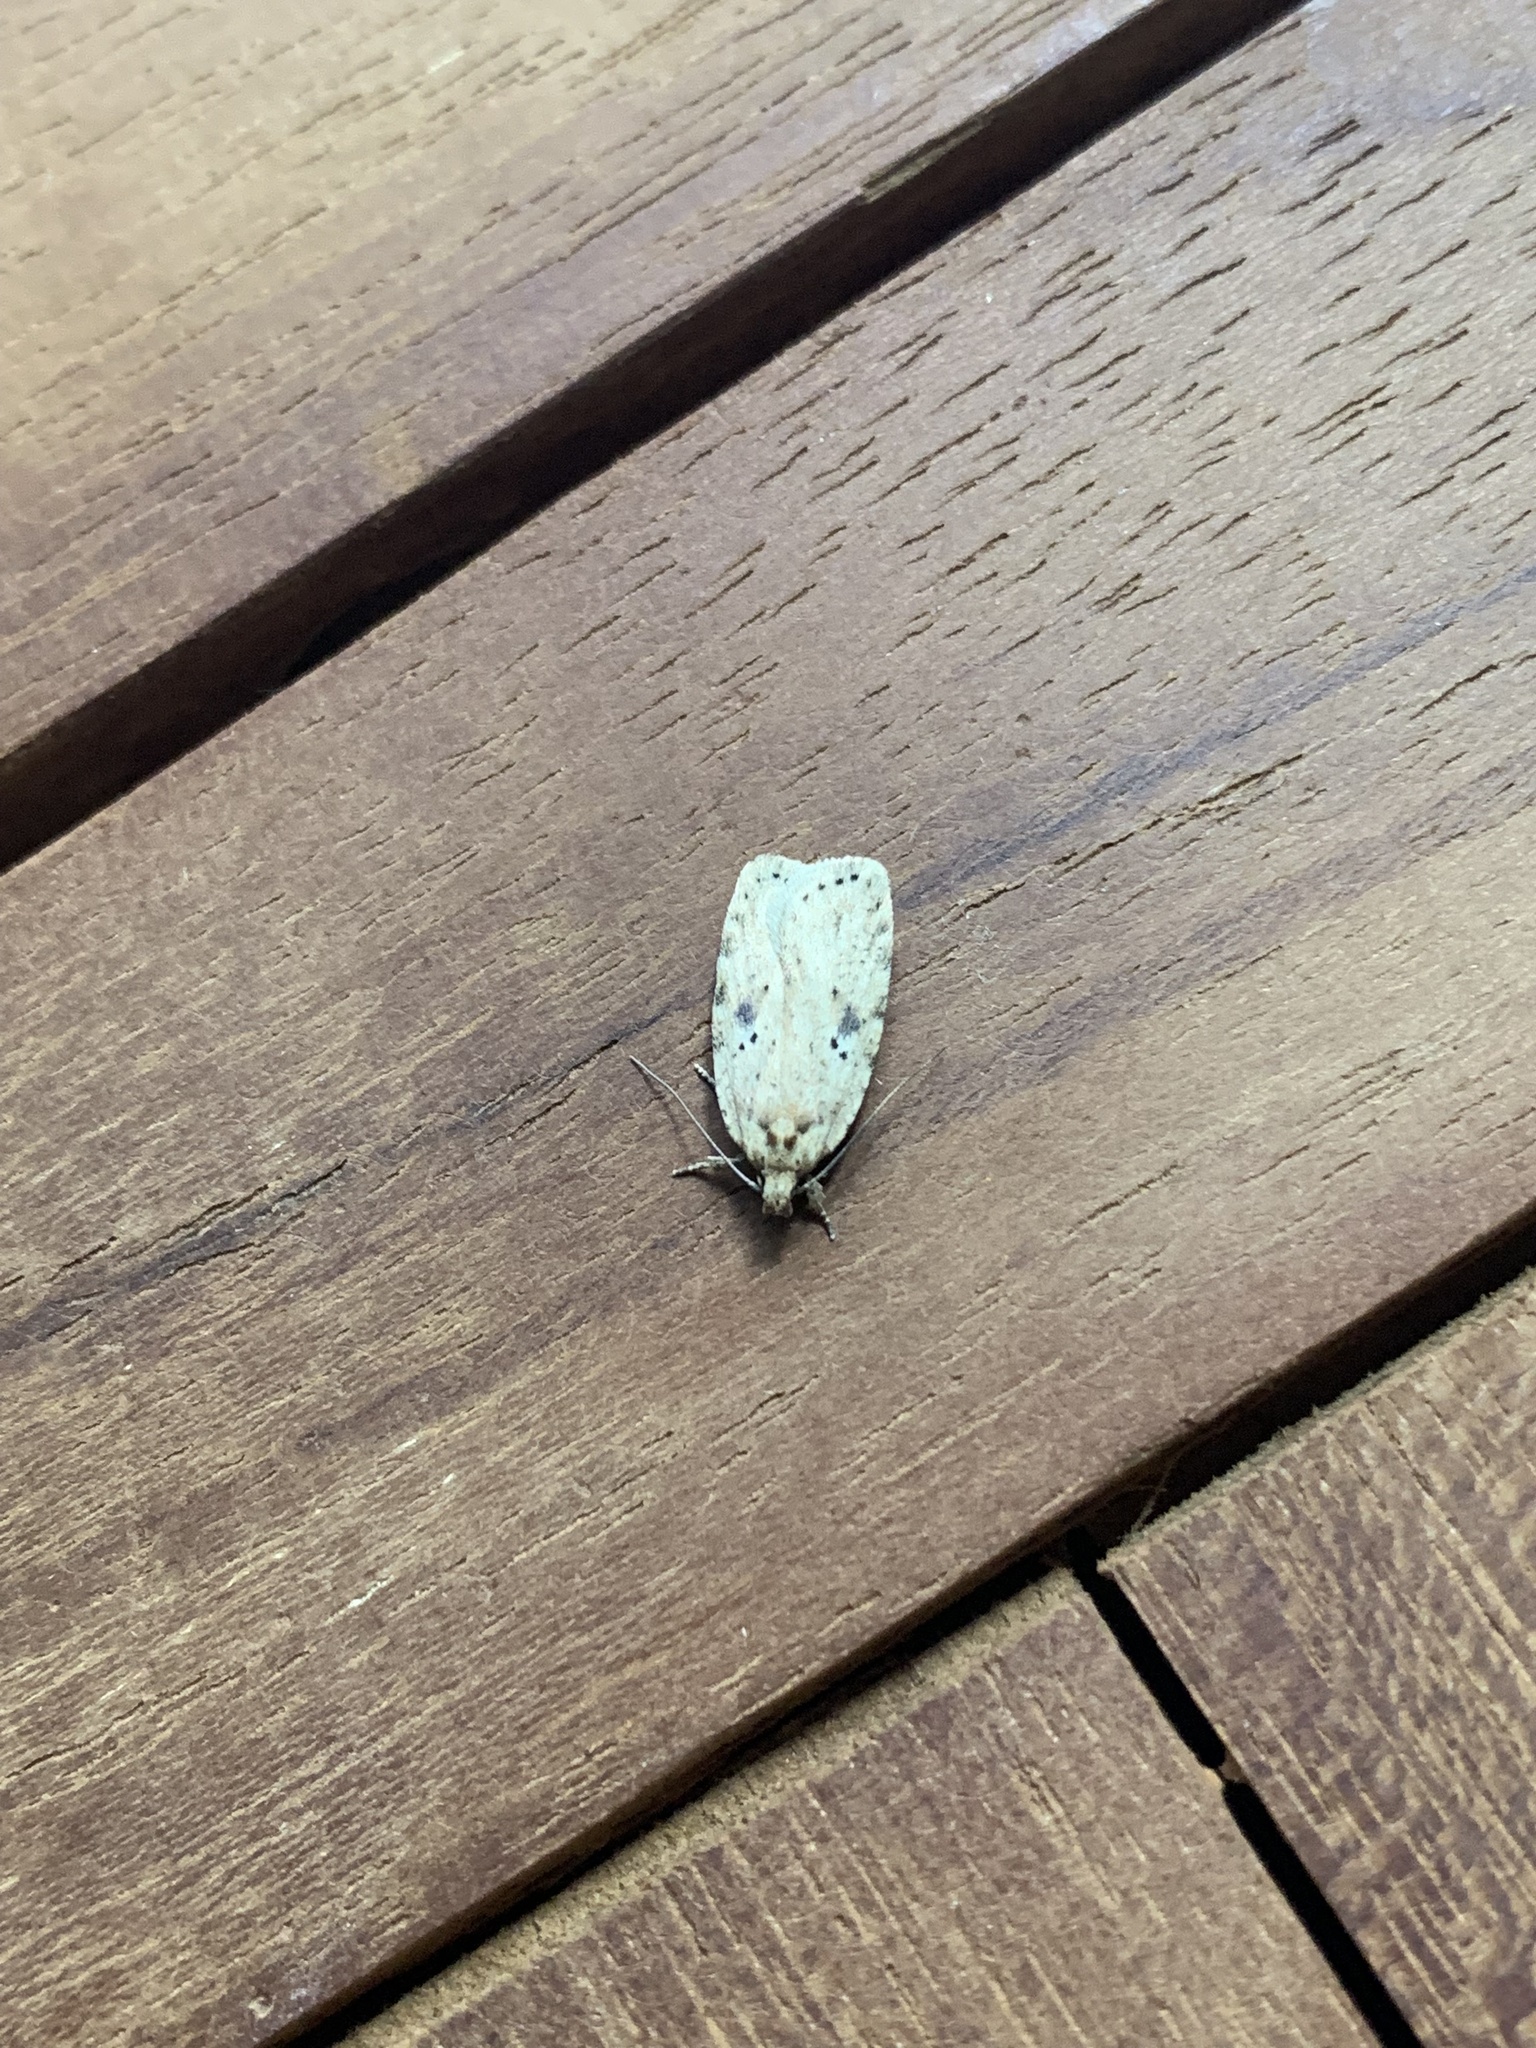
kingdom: Animalia
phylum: Arthropoda
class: Insecta
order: Lepidoptera
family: Depressariidae
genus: Agonopterix
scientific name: Agonopterix arenella
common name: Brindled flat-body
